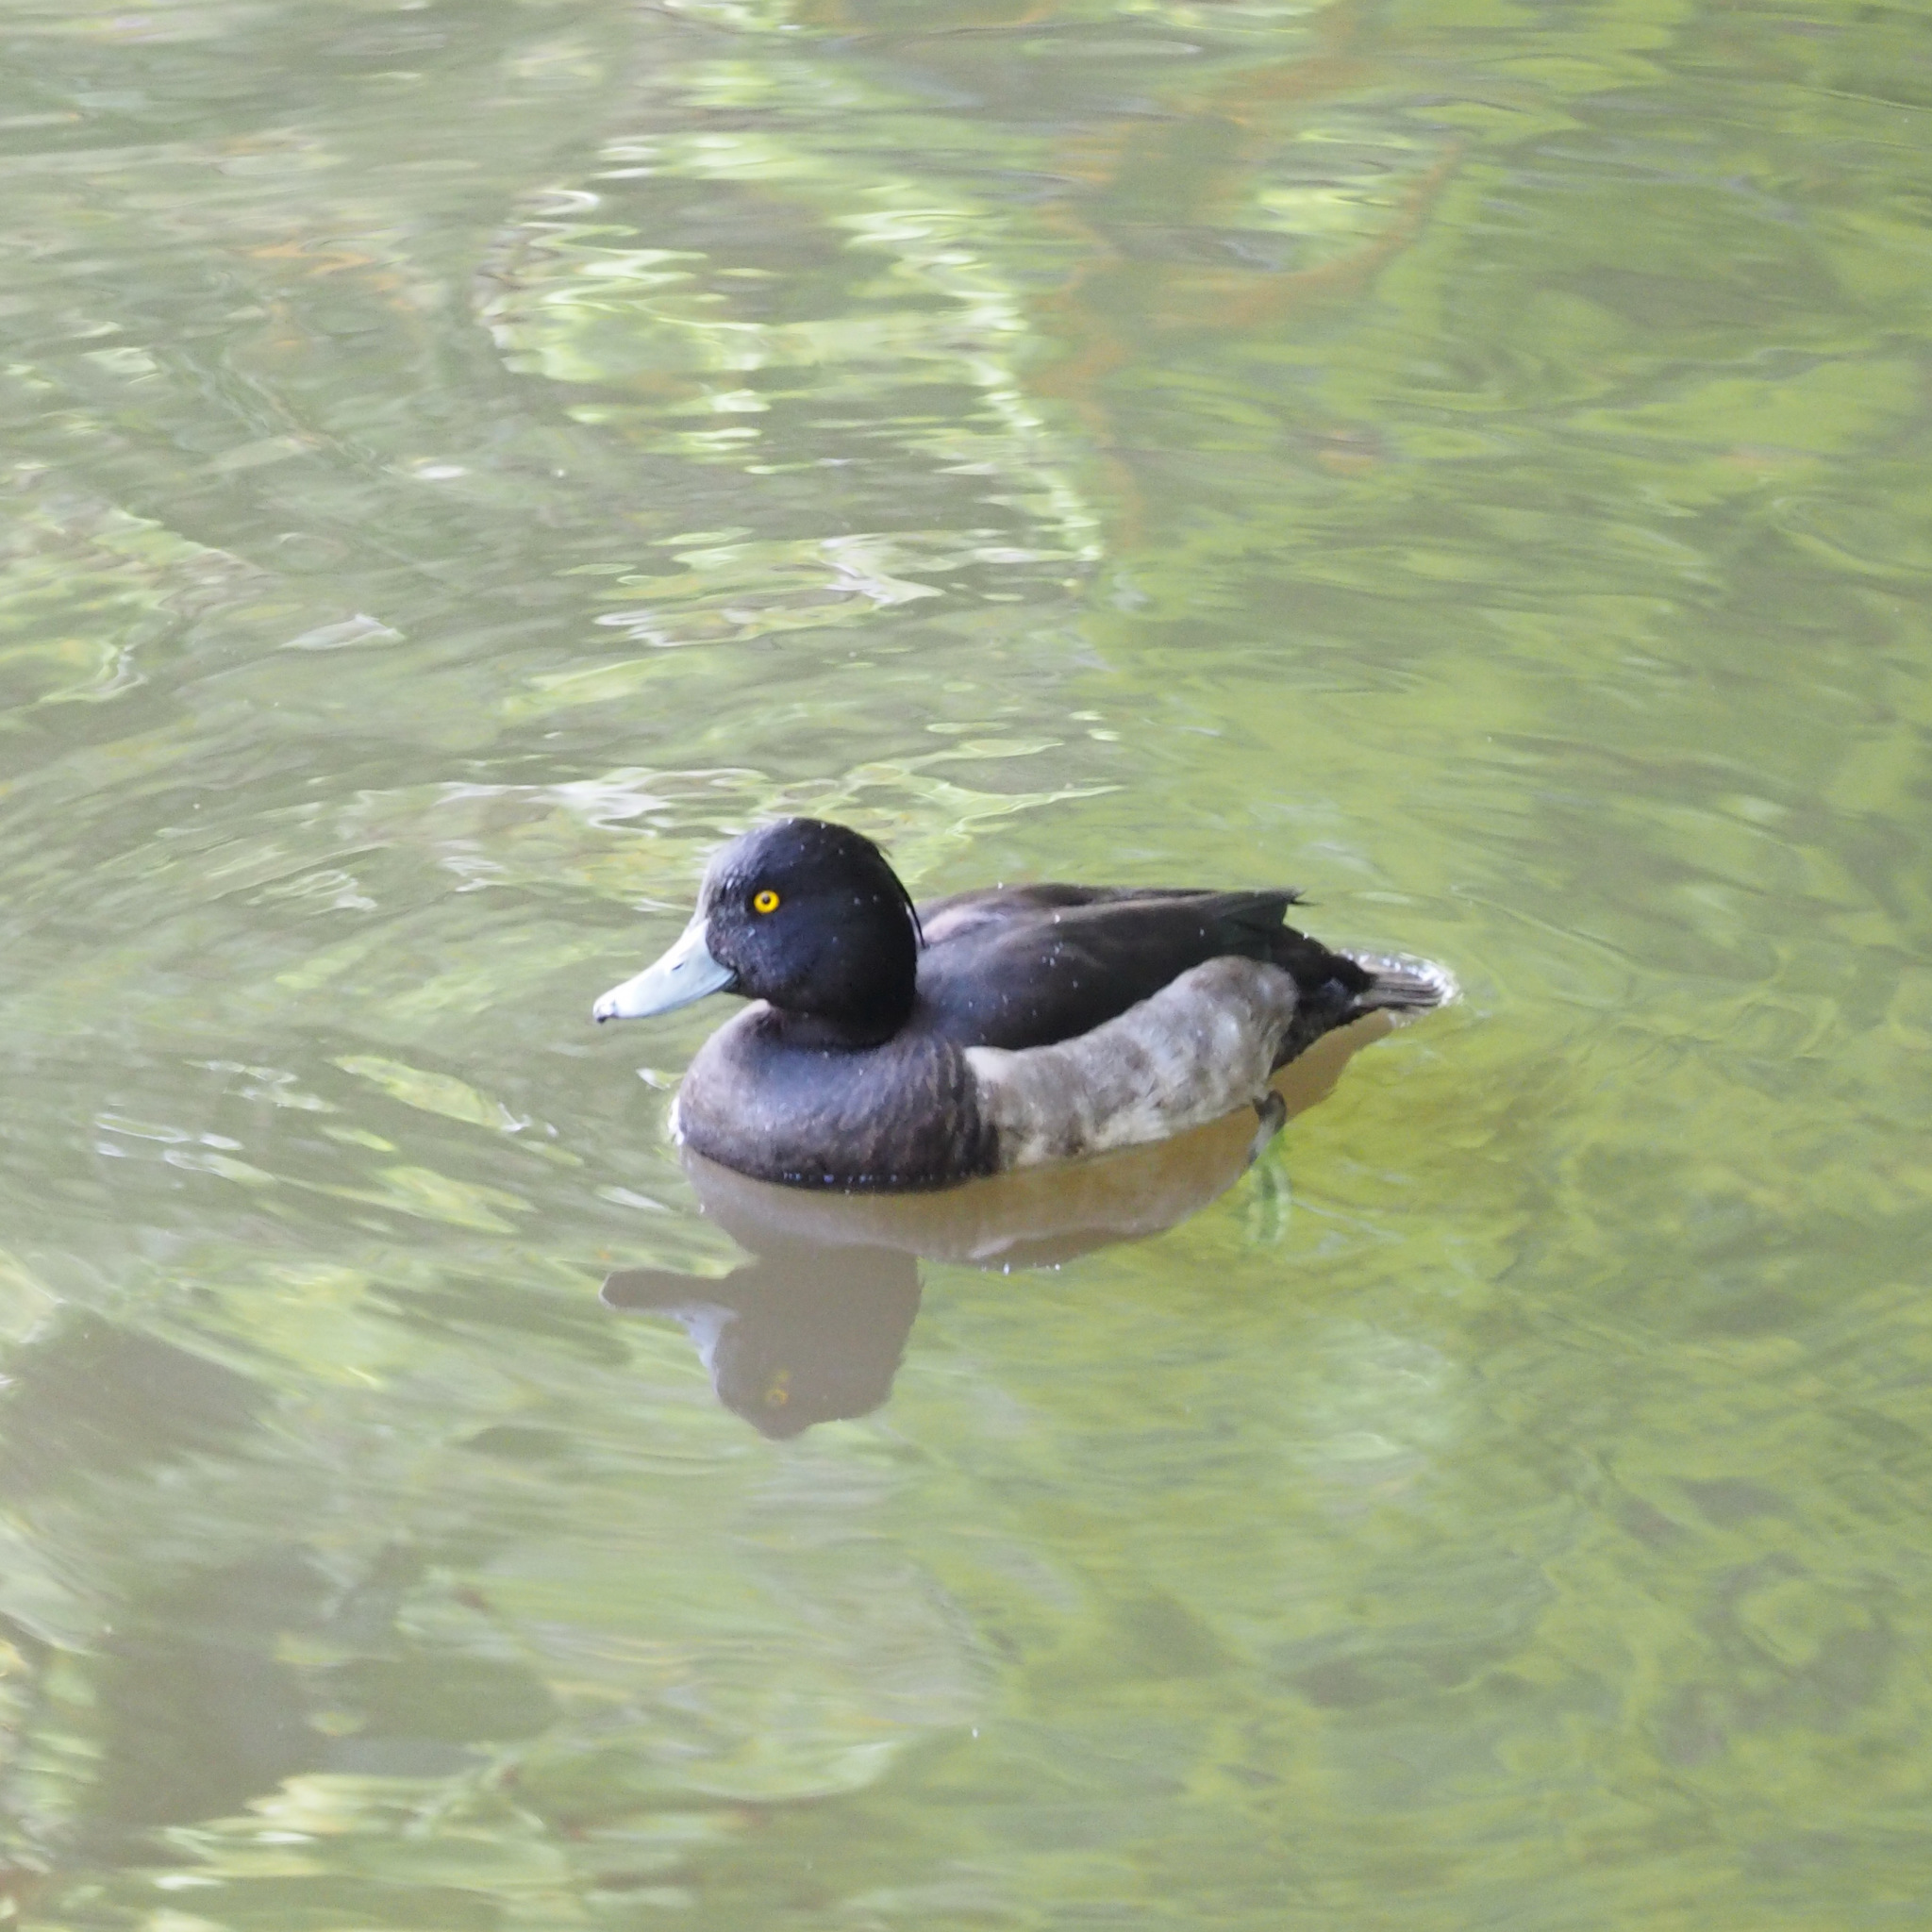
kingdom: Animalia
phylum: Chordata
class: Aves
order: Anseriformes
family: Anatidae
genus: Aythya
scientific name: Aythya fuligula
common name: Tufted duck
